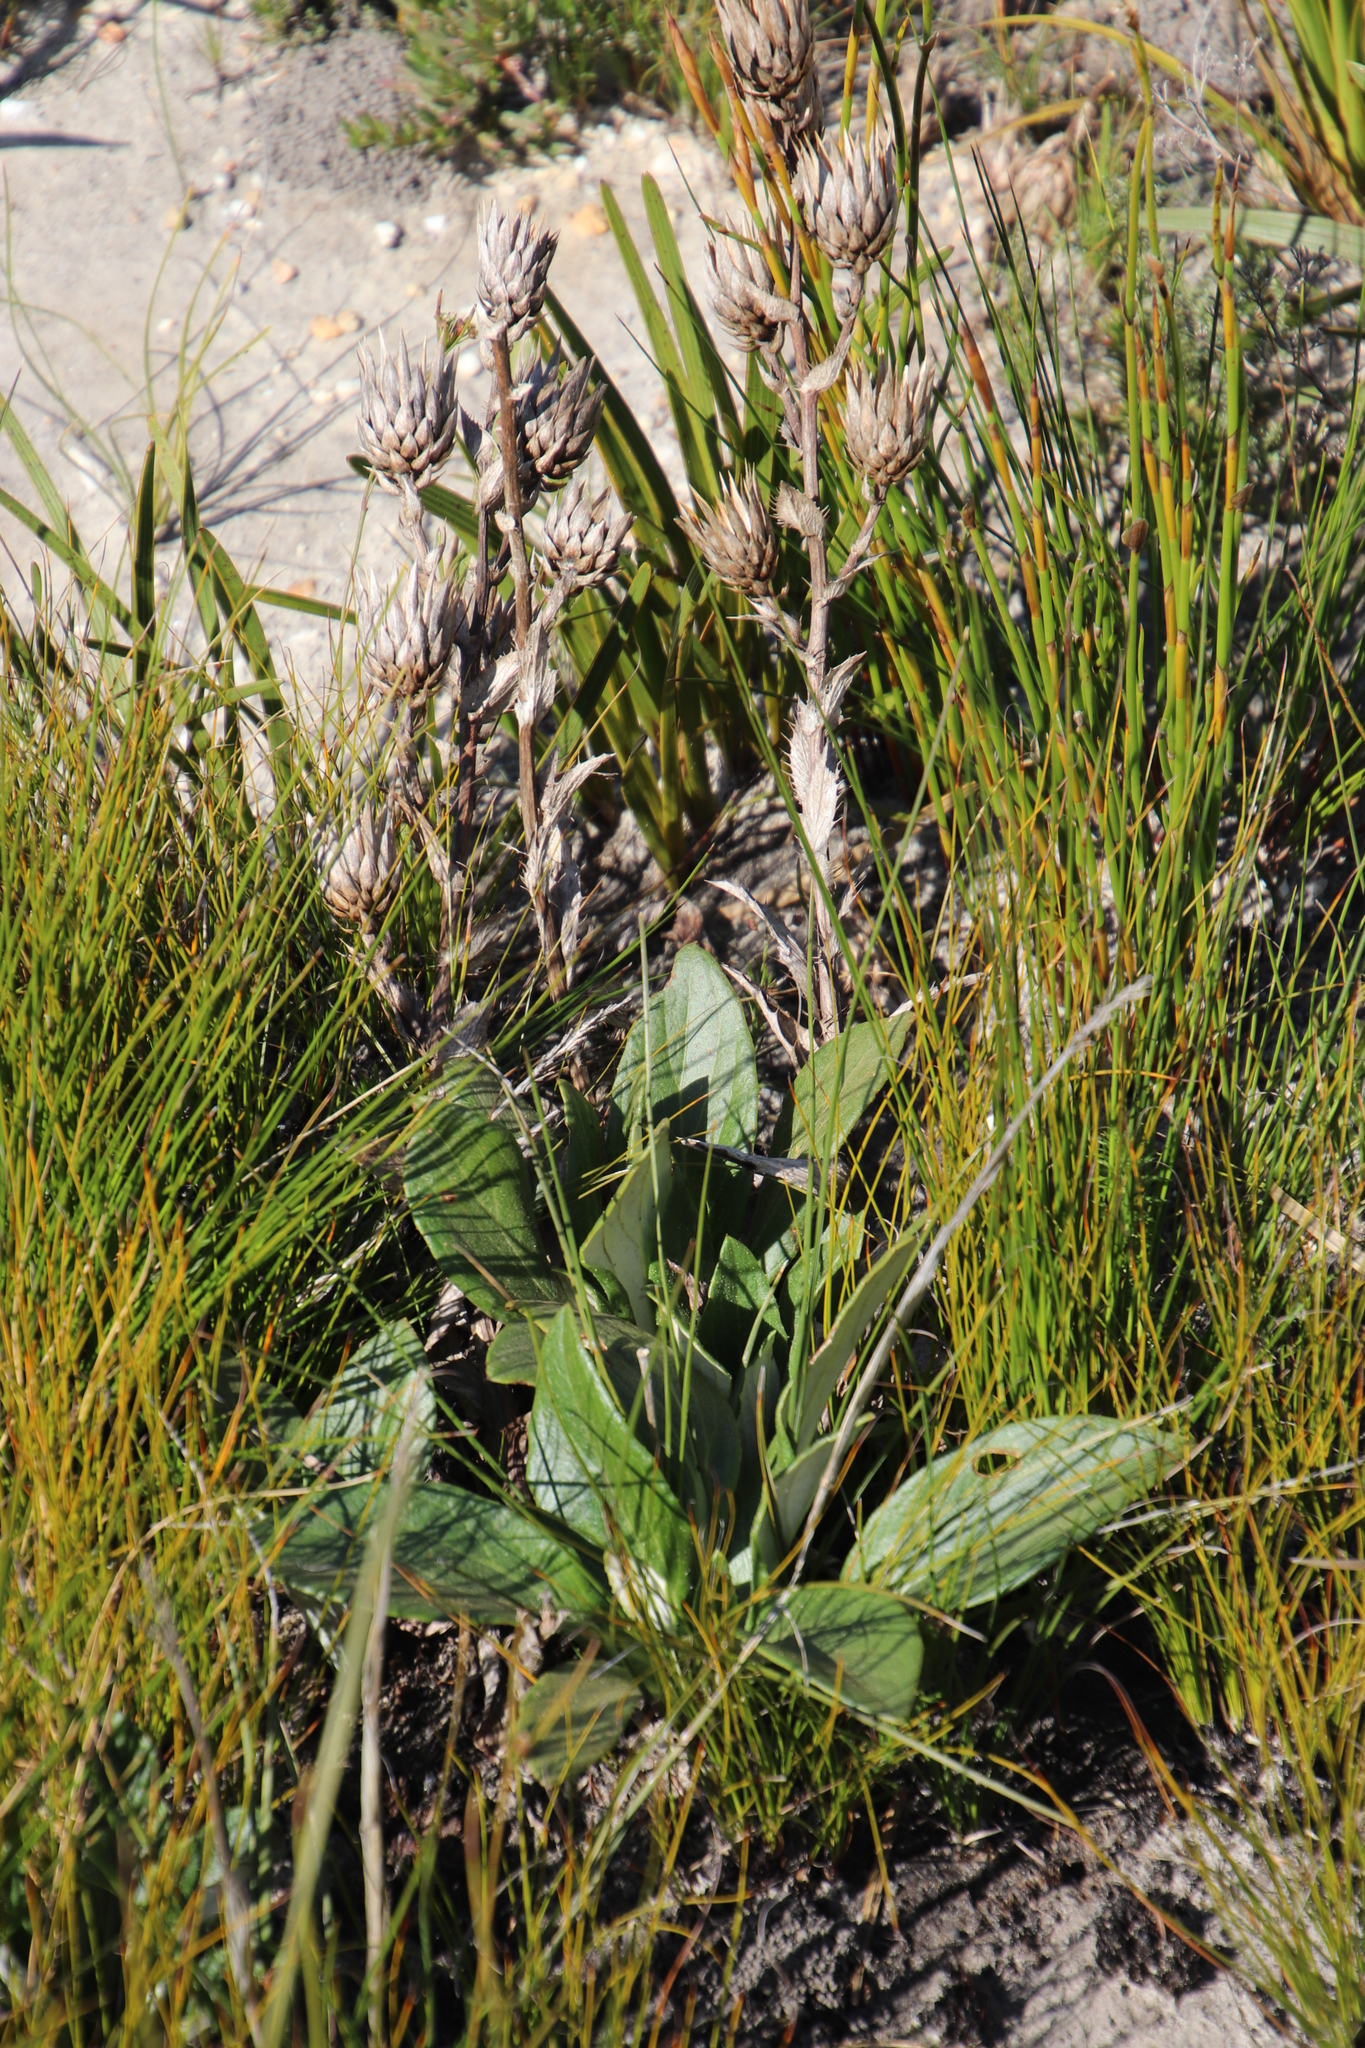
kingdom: Plantae
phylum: Tracheophyta
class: Magnoliopsida
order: Asterales
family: Asteraceae
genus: Berkheya
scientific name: Berkheya herbacea
